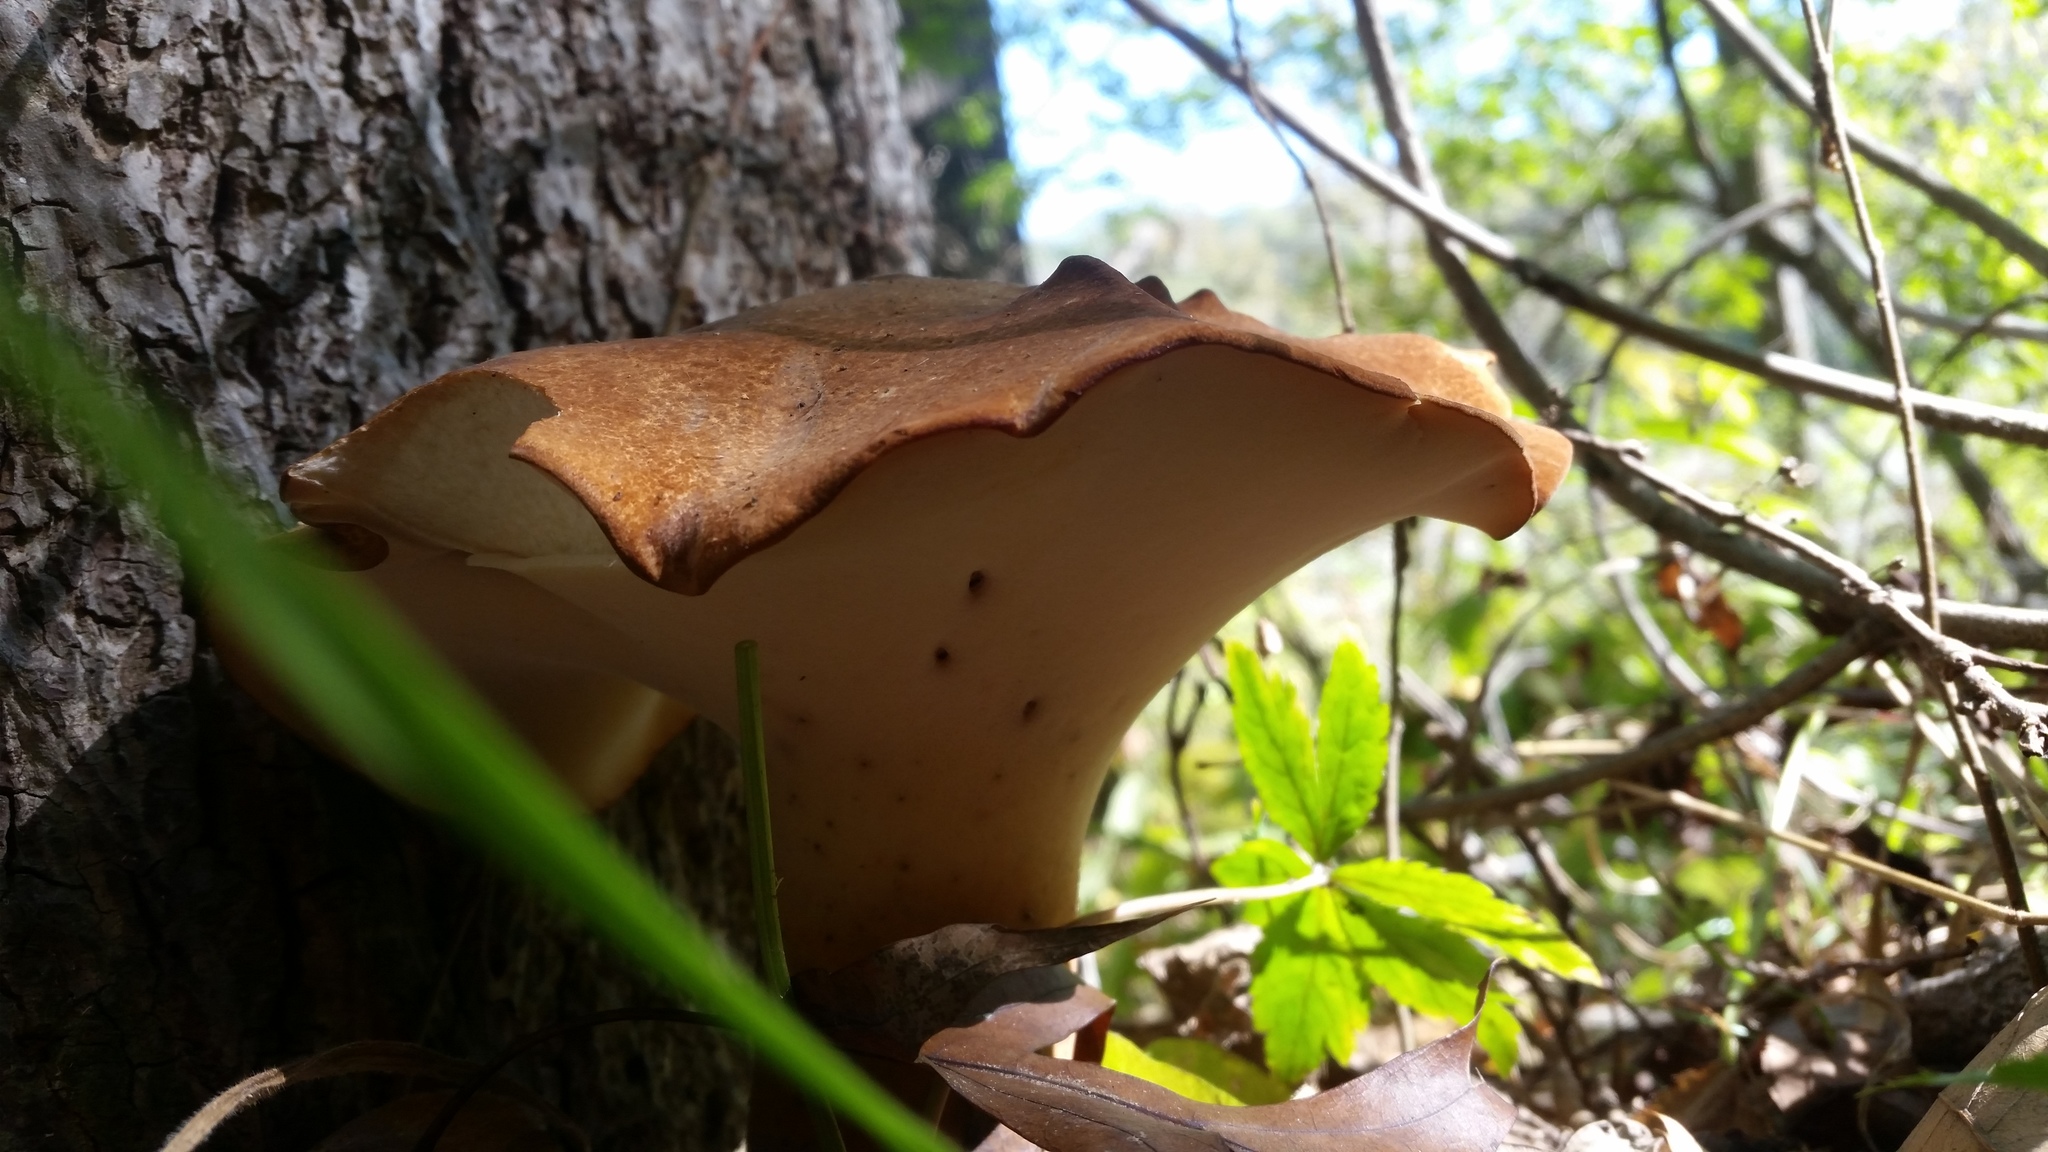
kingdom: Fungi
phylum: Basidiomycota
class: Agaricomycetes
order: Polyporales
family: Polyporaceae
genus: Polyporus
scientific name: Polyporus radicatus
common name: Rooting polypore
